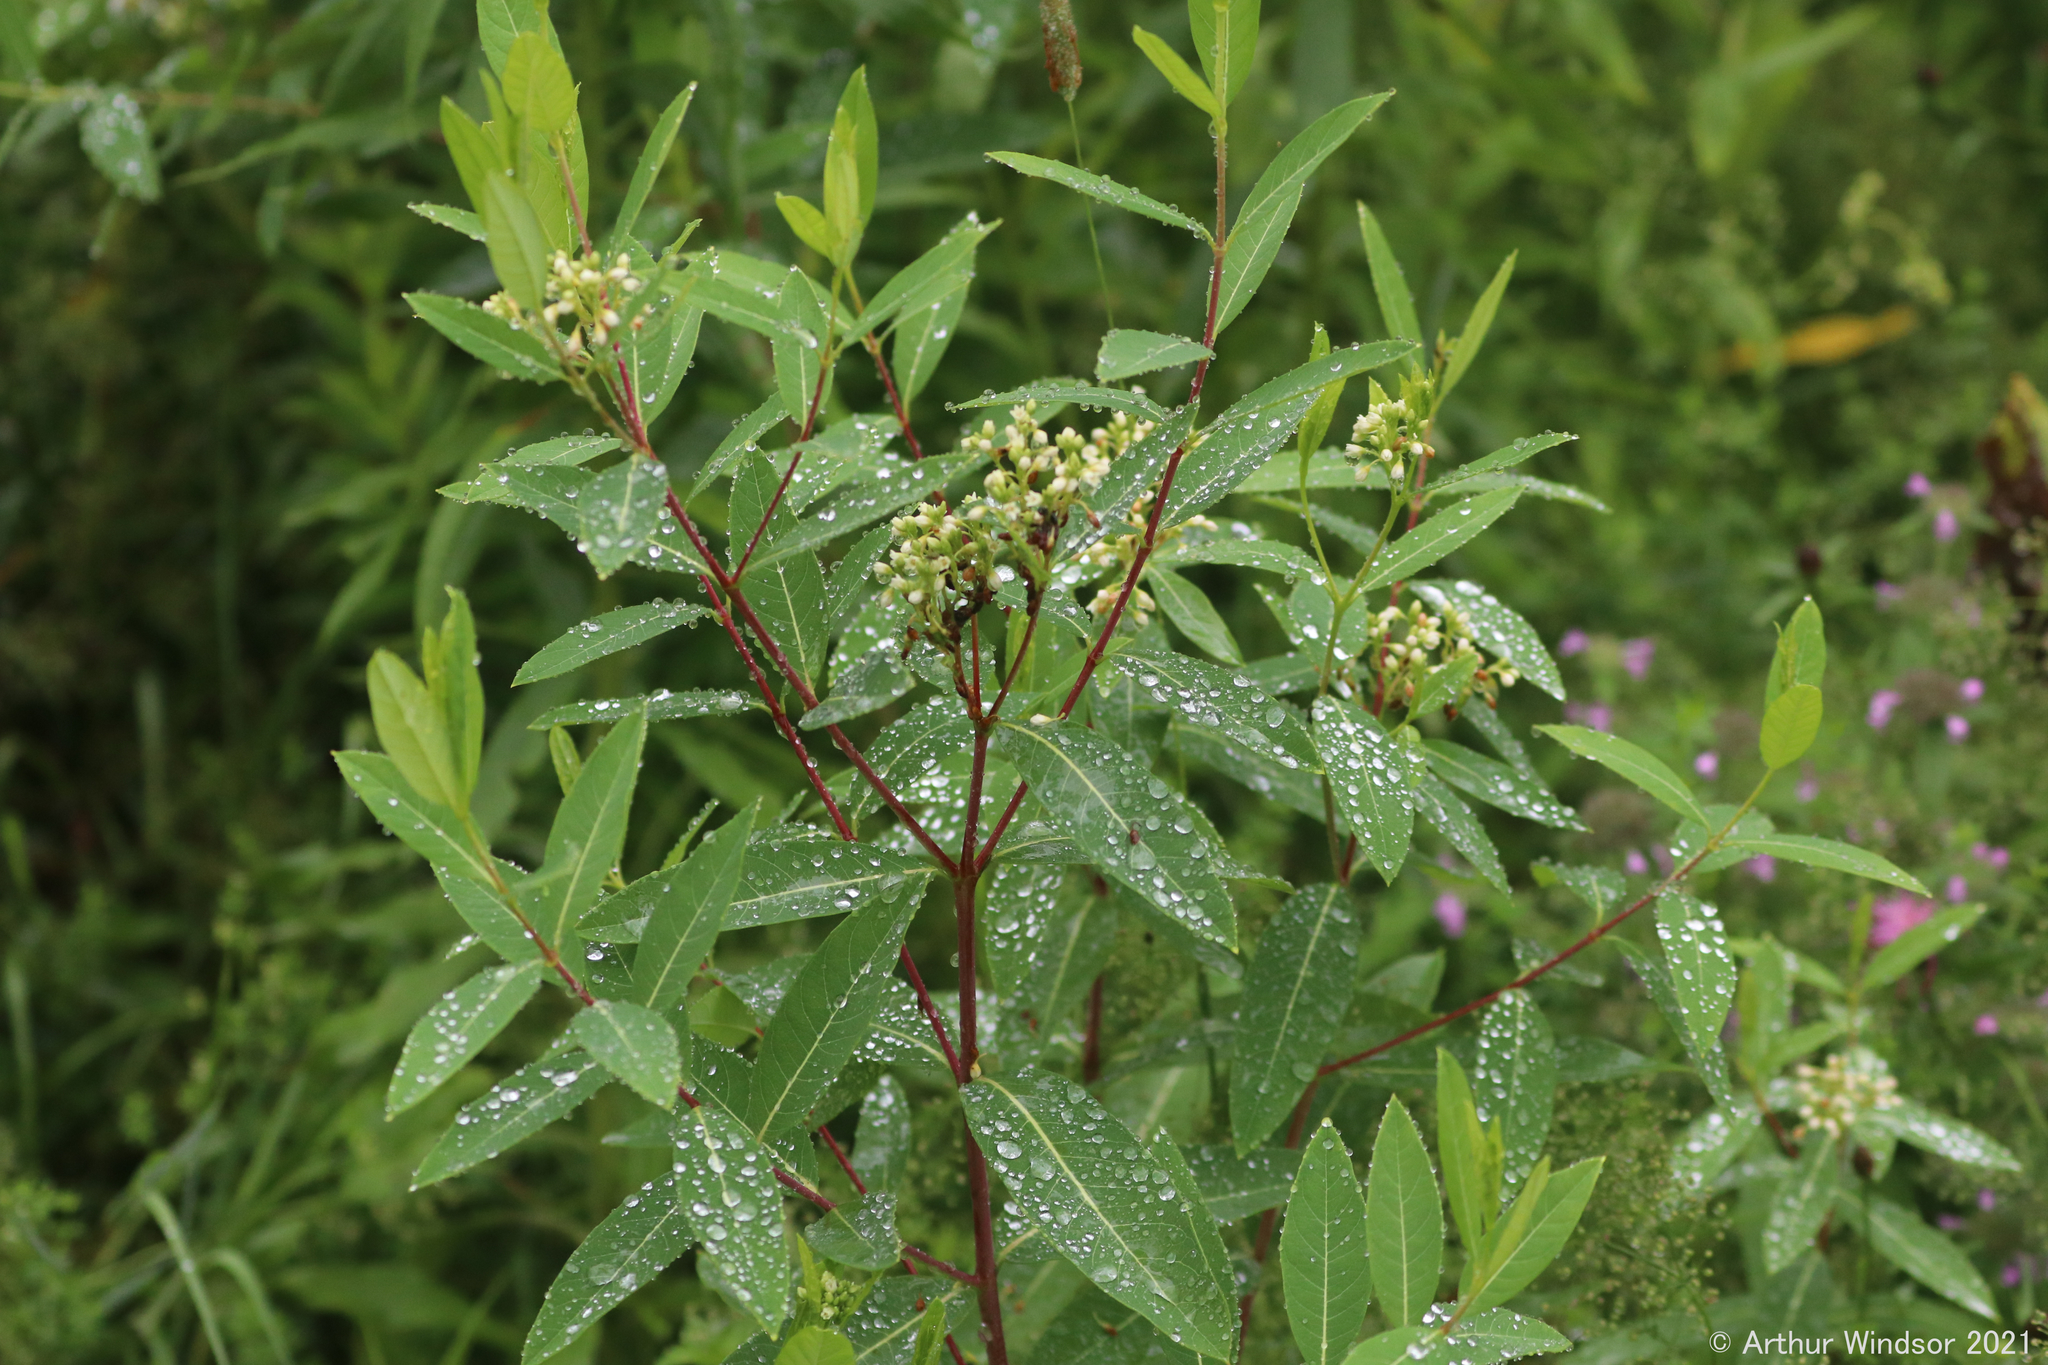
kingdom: Plantae
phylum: Tracheophyta
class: Magnoliopsida
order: Gentianales
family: Apocynaceae
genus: Apocynum
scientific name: Apocynum cannabinum
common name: Hemp dogbane
